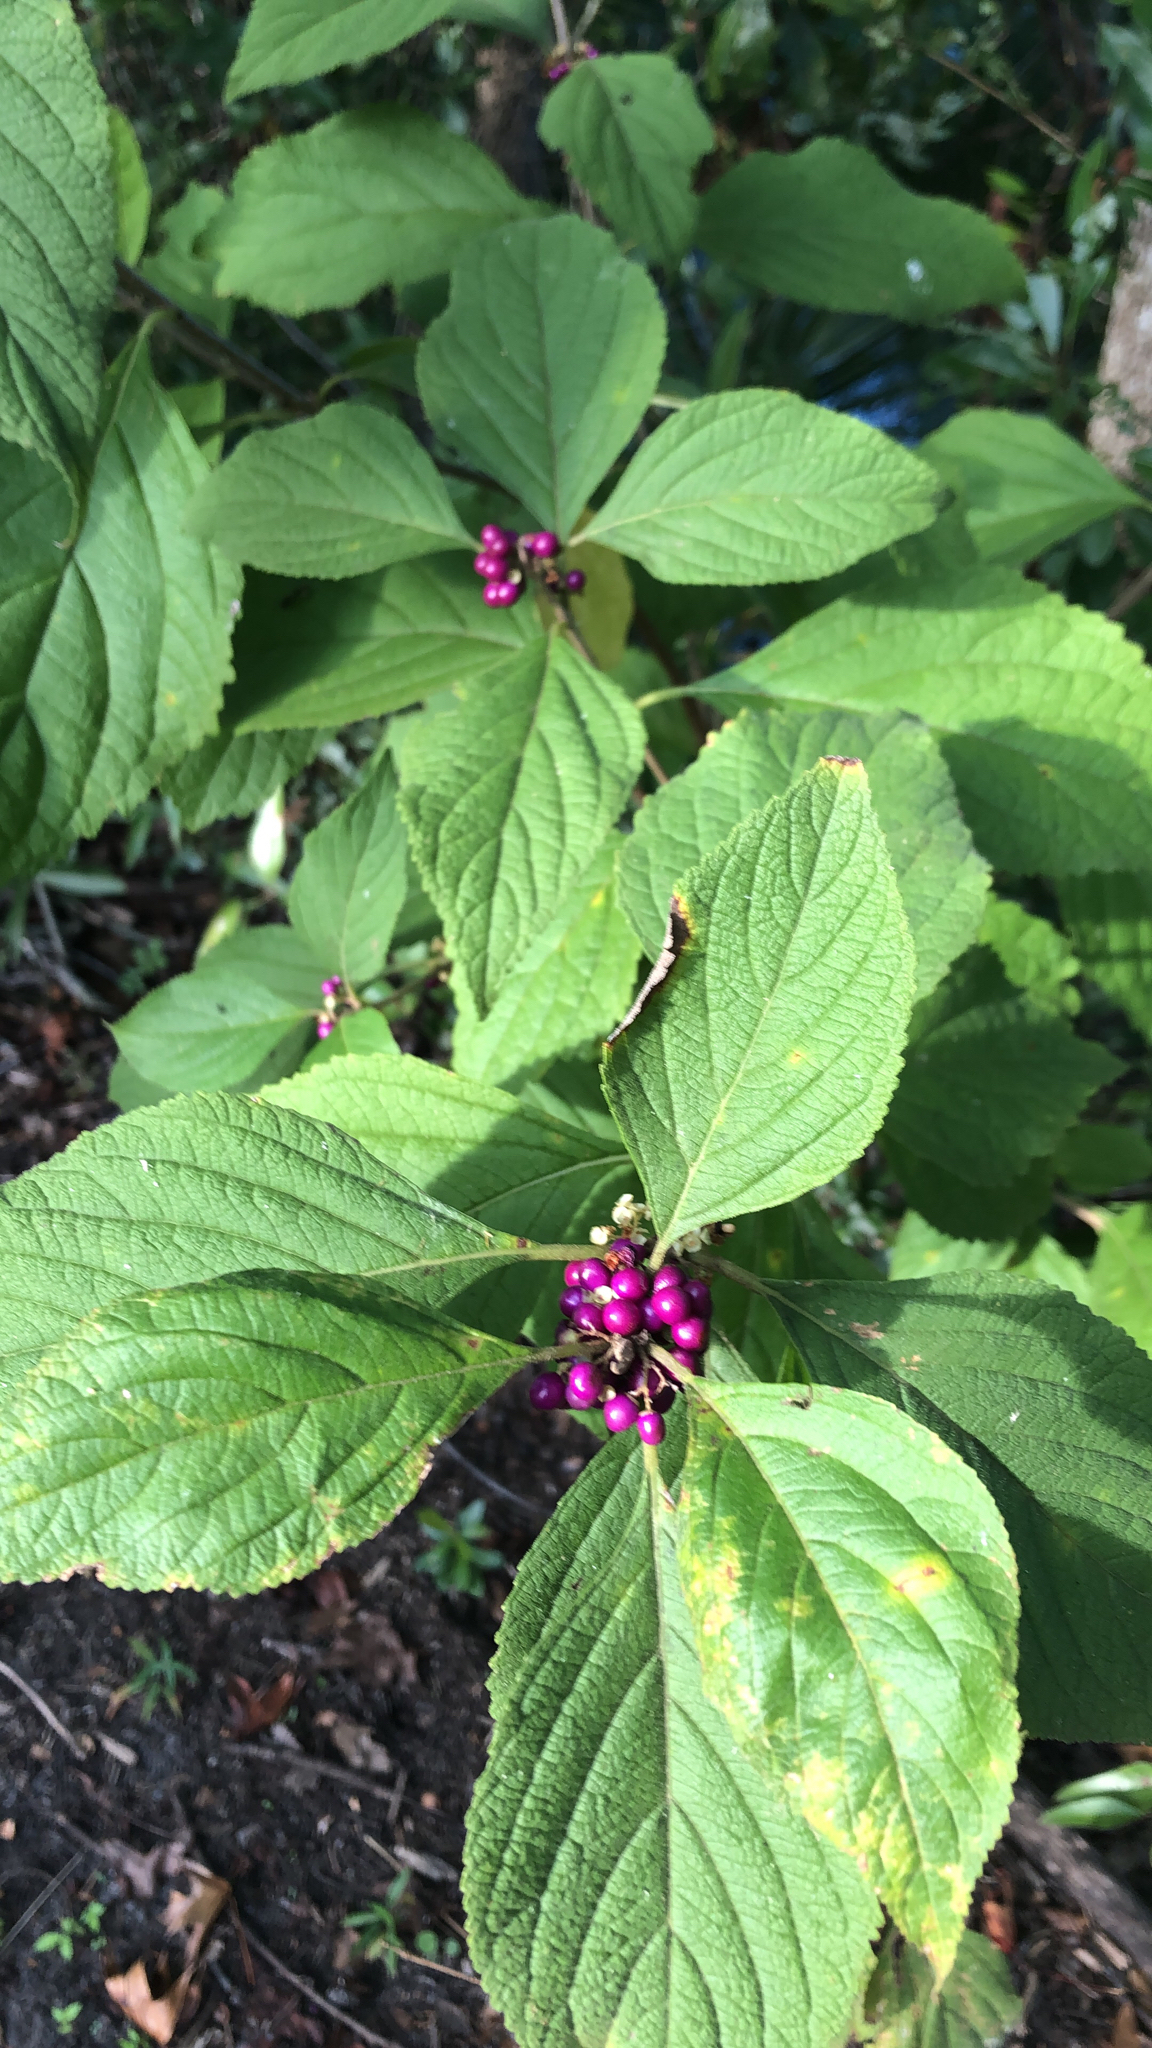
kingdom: Plantae
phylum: Tracheophyta
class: Magnoliopsida
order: Lamiales
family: Lamiaceae
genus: Callicarpa
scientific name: Callicarpa americana
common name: American beautyberry
